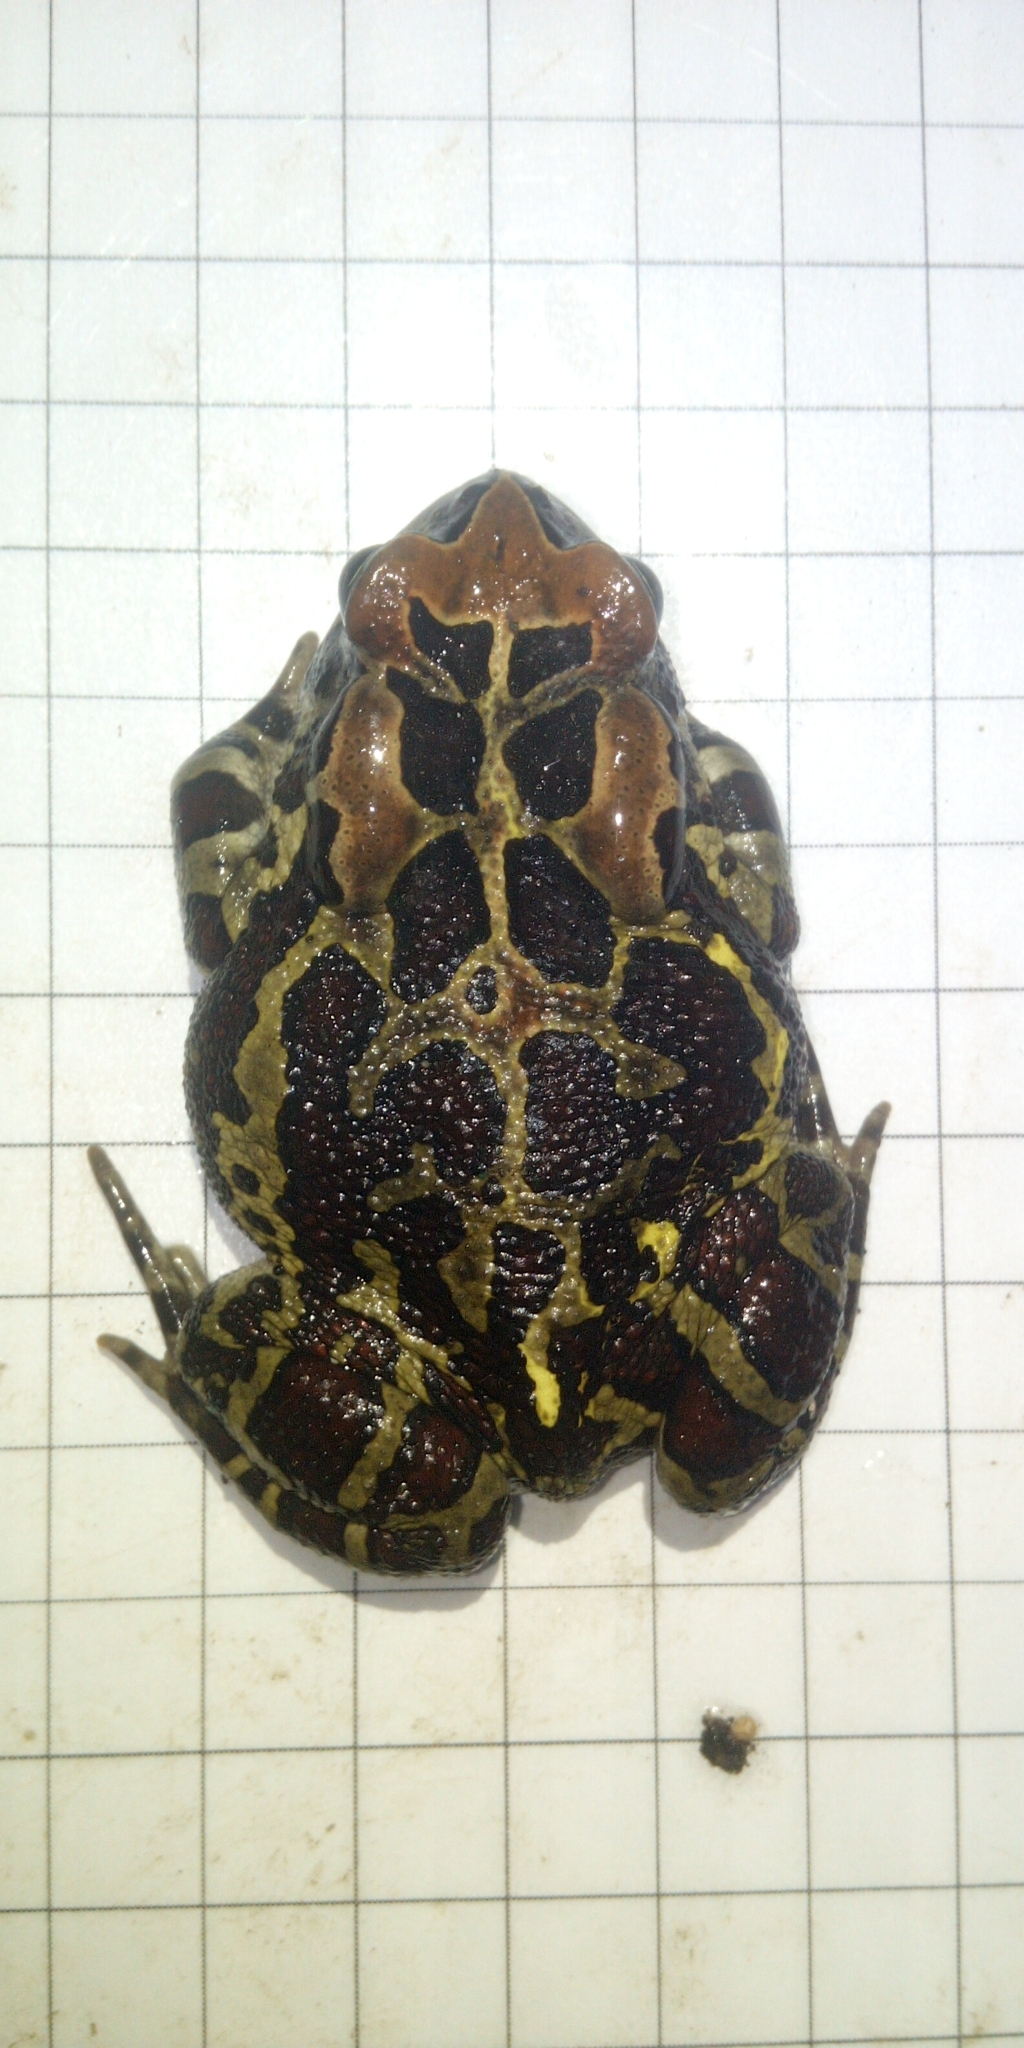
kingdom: Animalia
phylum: Chordata
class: Amphibia
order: Anura
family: Bufonidae
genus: Sclerophrys
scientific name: Sclerophrys pantherina
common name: Panther toad
